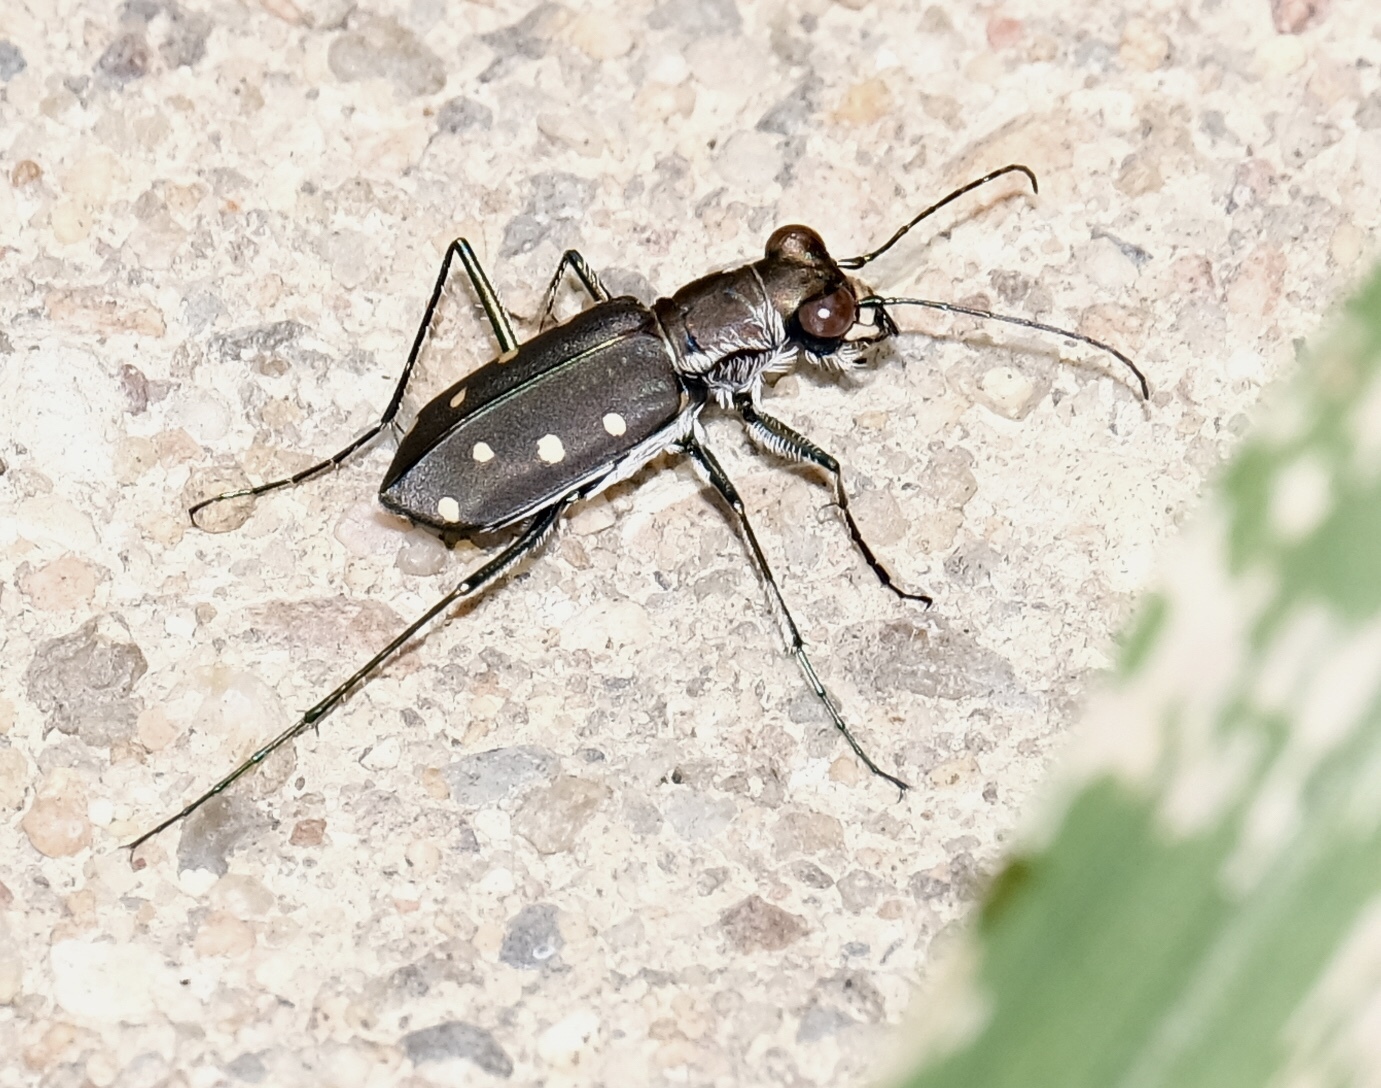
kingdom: Animalia
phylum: Arthropoda
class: Insecta
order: Coleoptera
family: Carabidae
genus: Cicindela
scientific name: Cicindela ocellata
